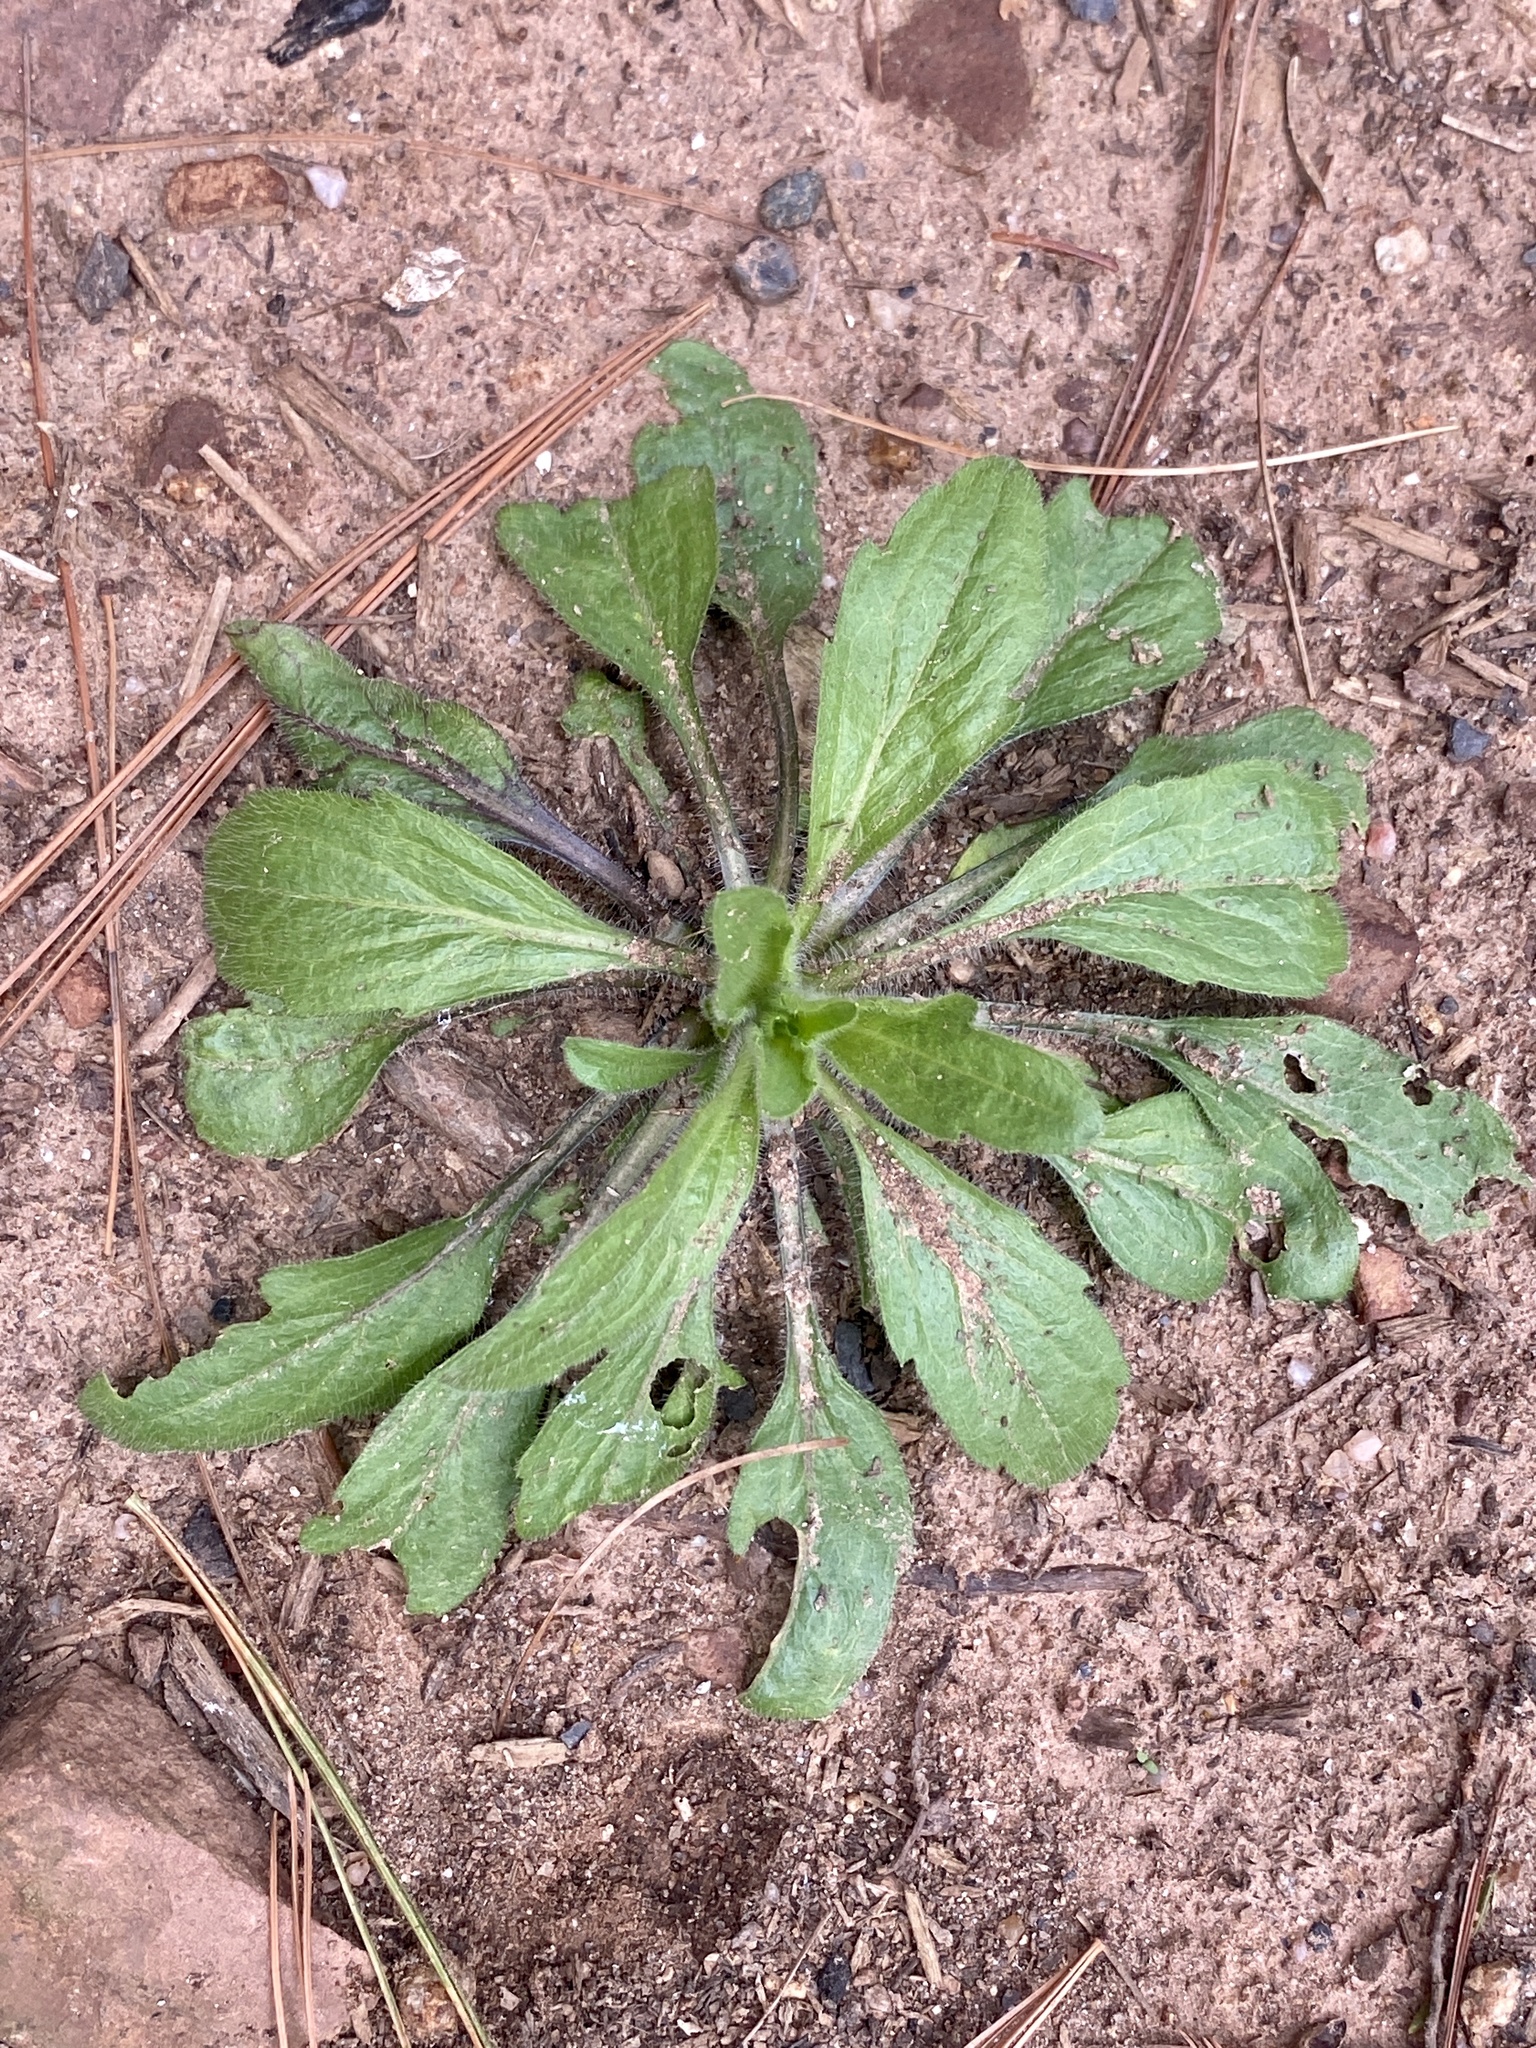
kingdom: Plantae
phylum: Tracheophyta
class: Magnoliopsida
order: Asterales
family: Asteraceae
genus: Erigeron
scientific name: Erigeron canadensis
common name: Canadian fleabane
